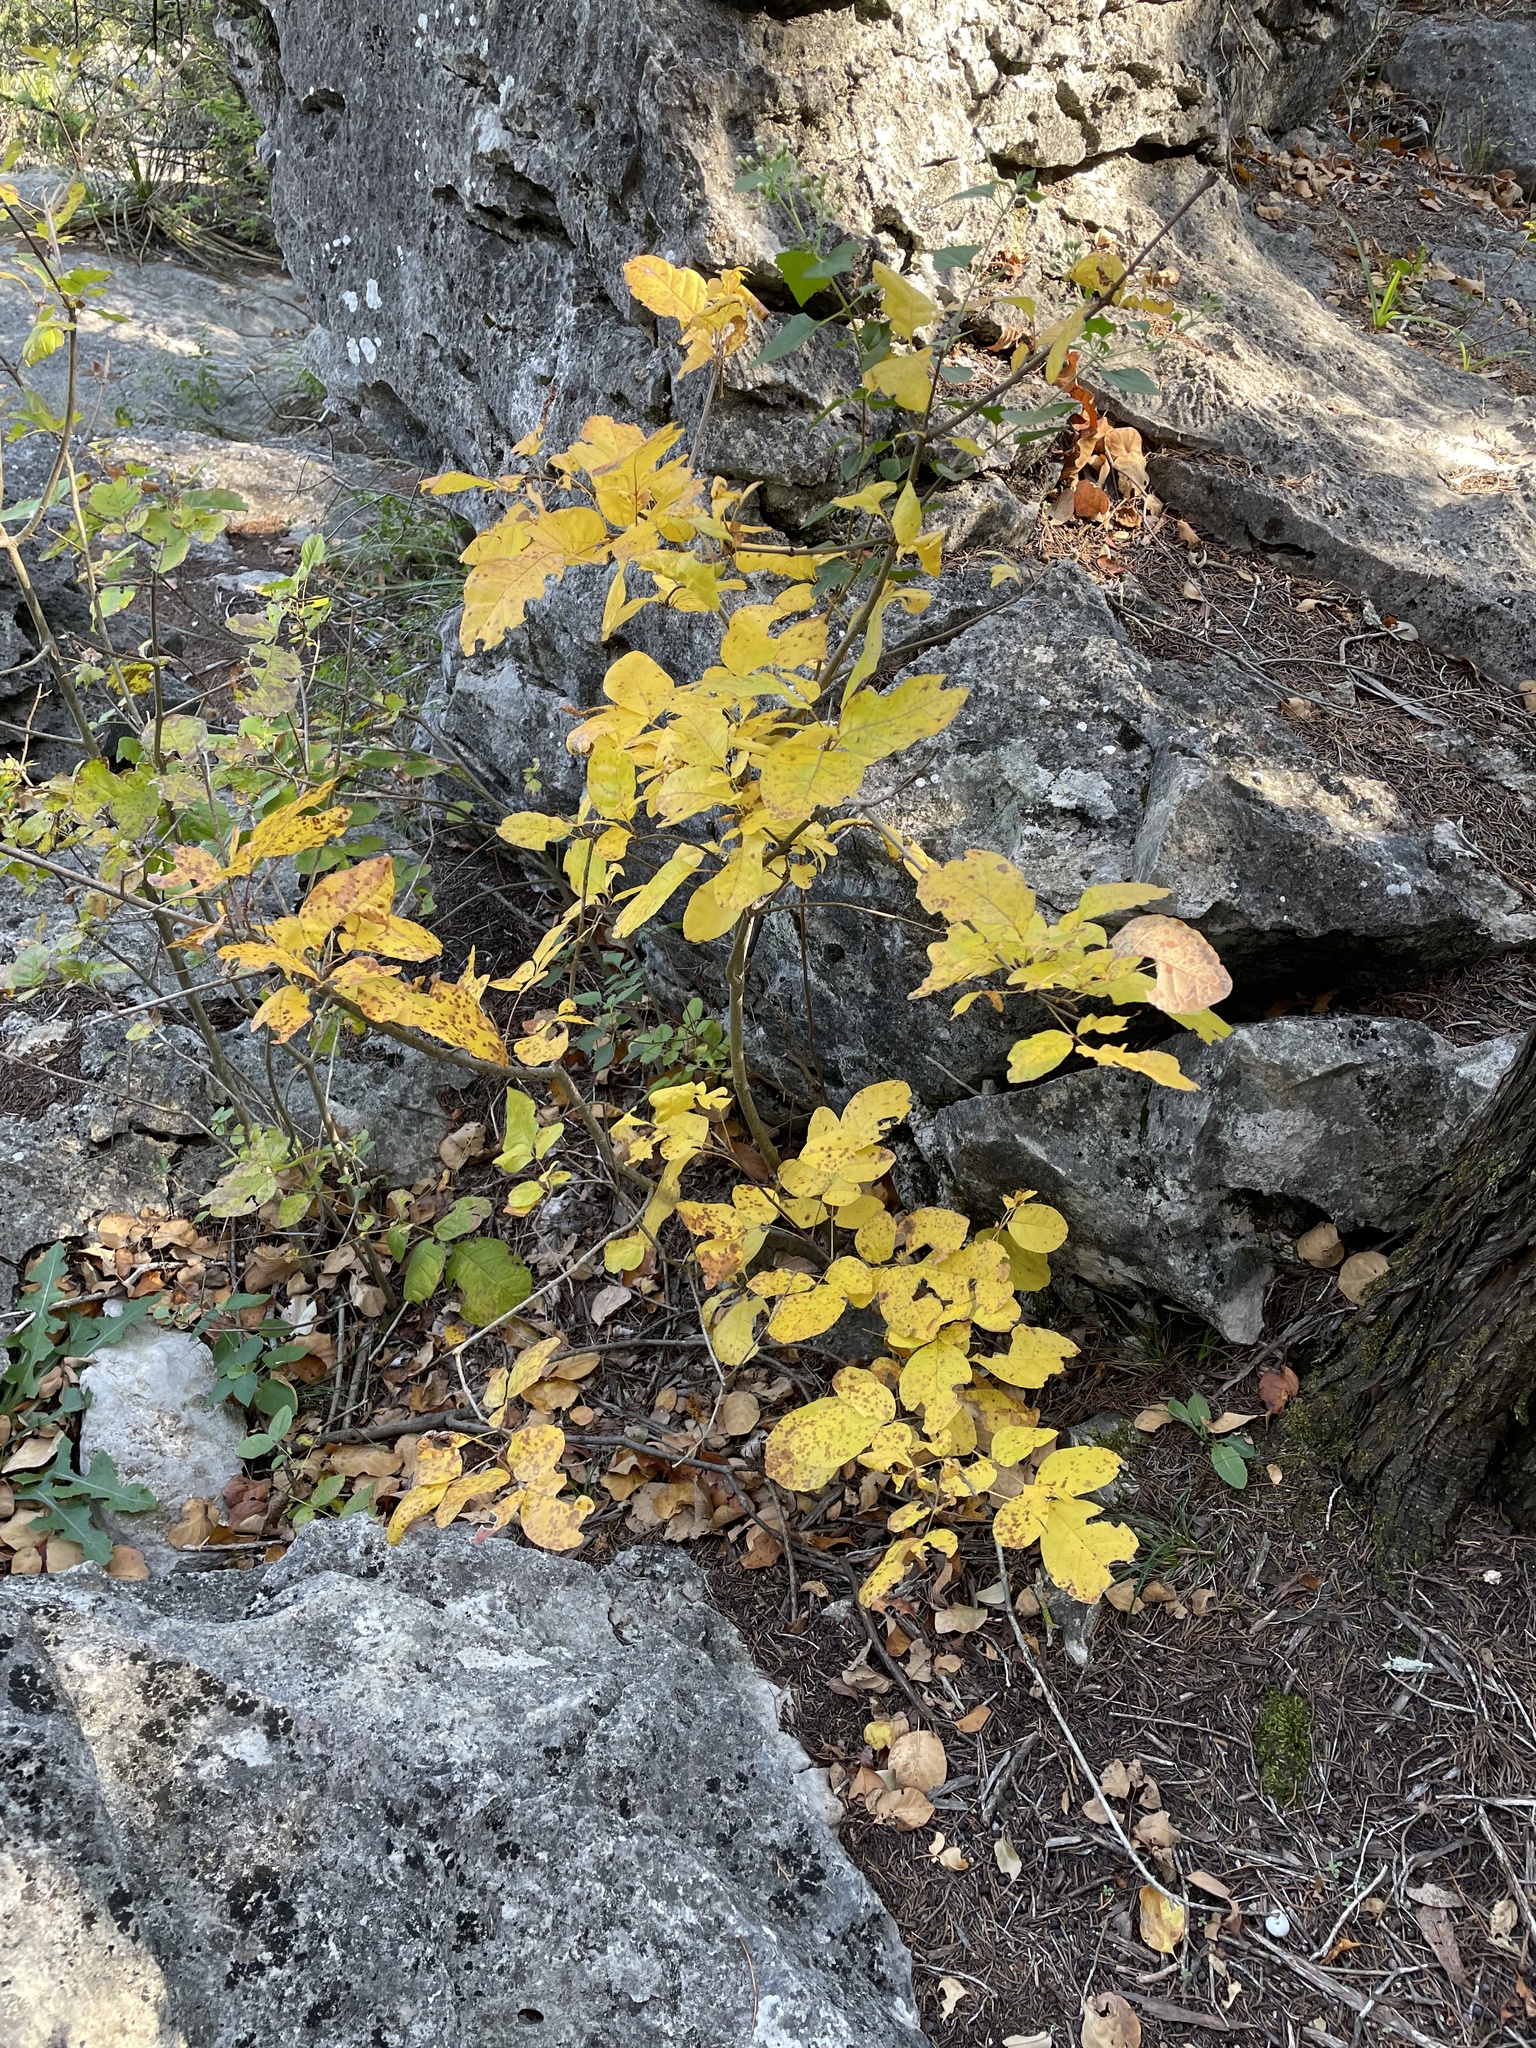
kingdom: Plantae
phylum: Tracheophyta
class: Magnoliopsida
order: Lamiales
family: Oleaceae
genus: Fraxinus
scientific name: Fraxinus albicans
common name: Texas ash
